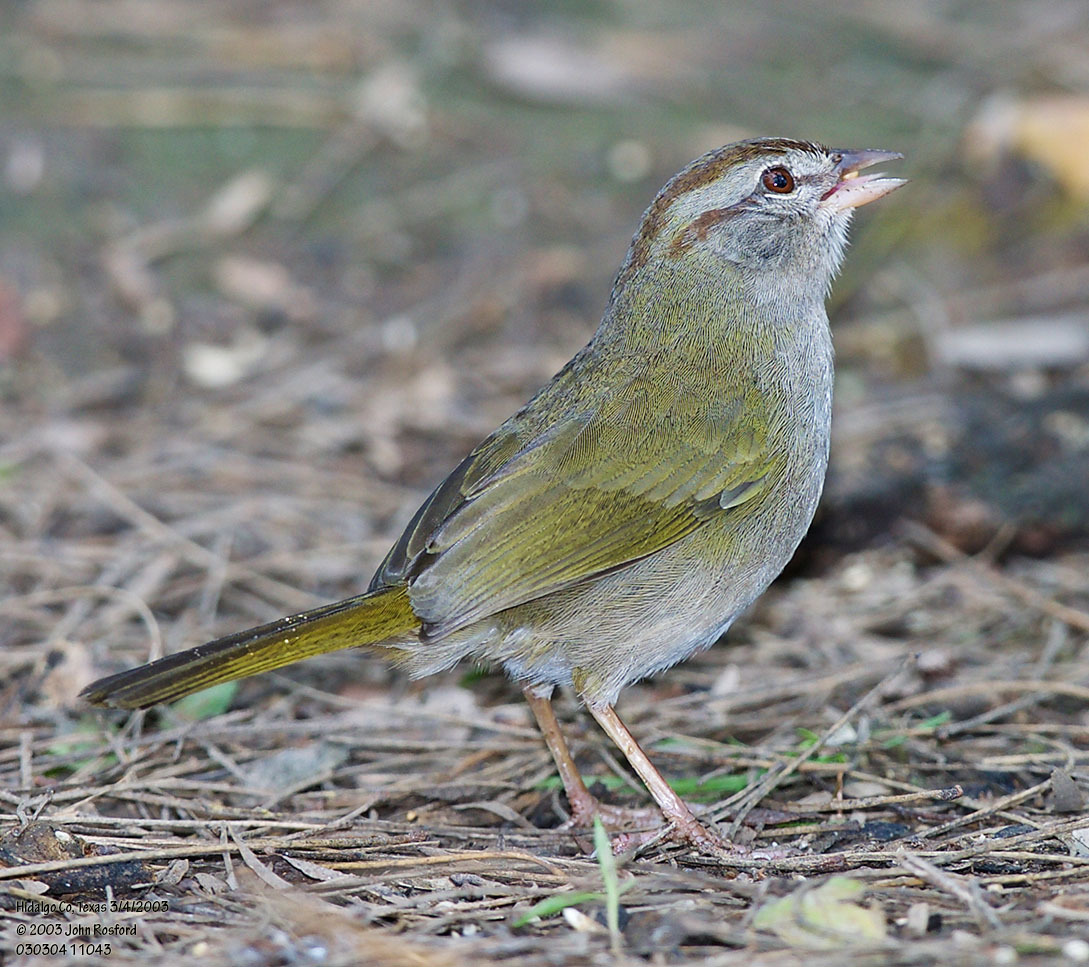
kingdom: Animalia
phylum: Chordata
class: Aves
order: Passeriformes
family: Passerellidae
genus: Arremonops
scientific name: Arremonops rufivirgatus
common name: Olive sparrow
